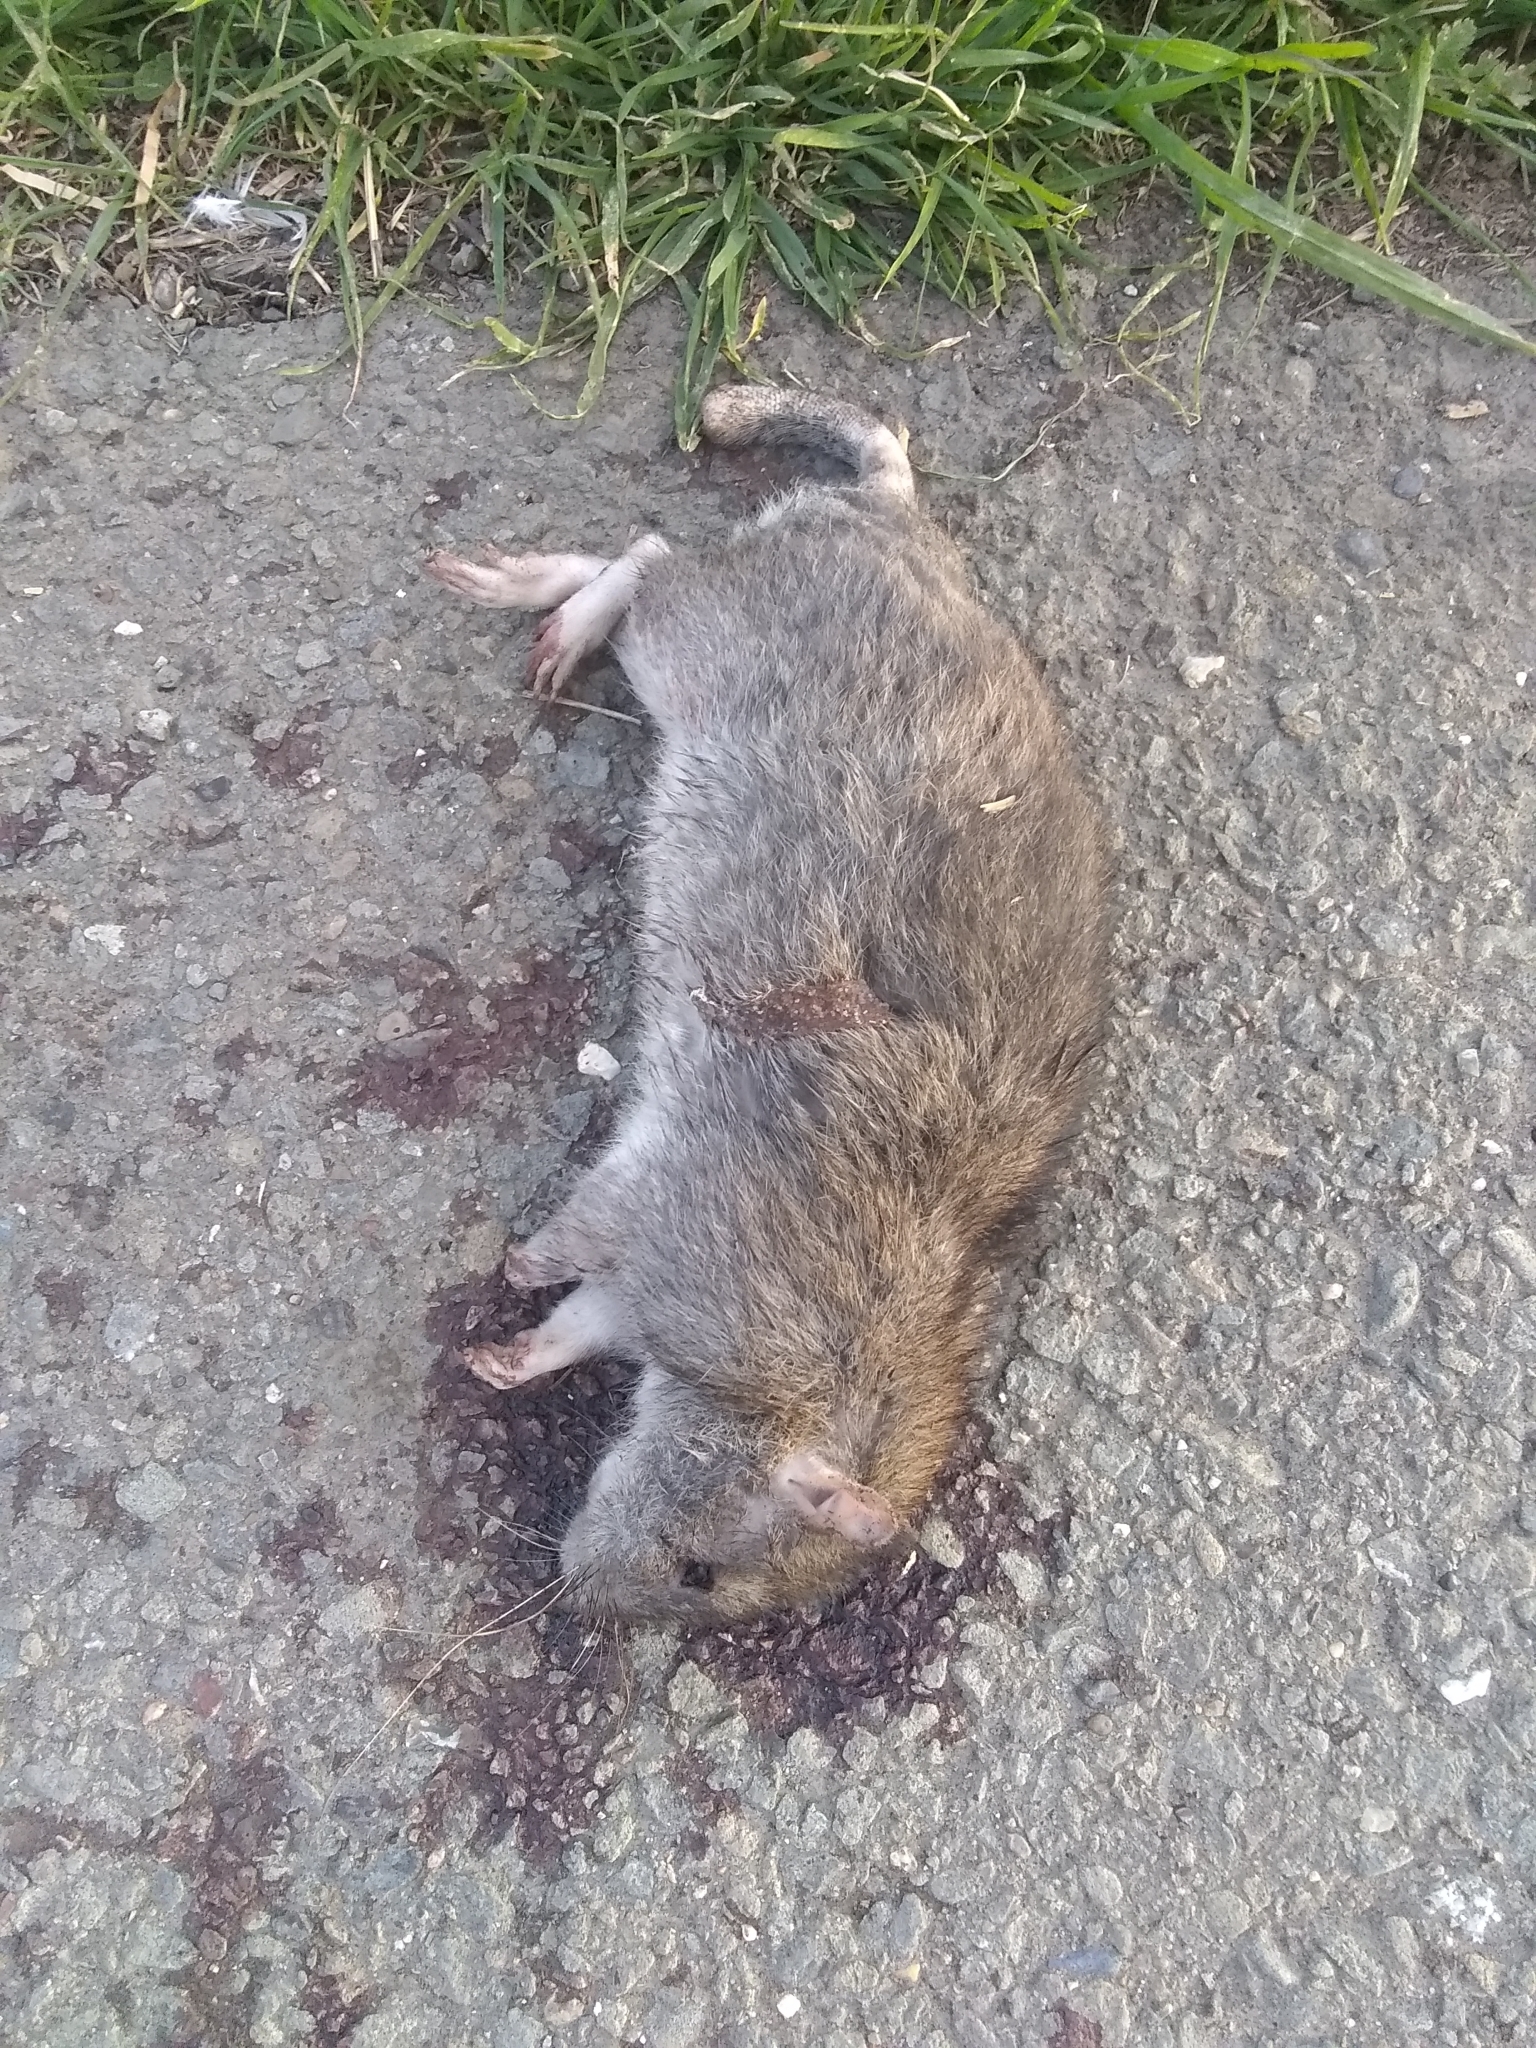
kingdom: Animalia
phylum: Chordata
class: Mammalia
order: Rodentia
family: Muridae
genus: Rattus
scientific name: Rattus norvegicus
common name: Brown rat
